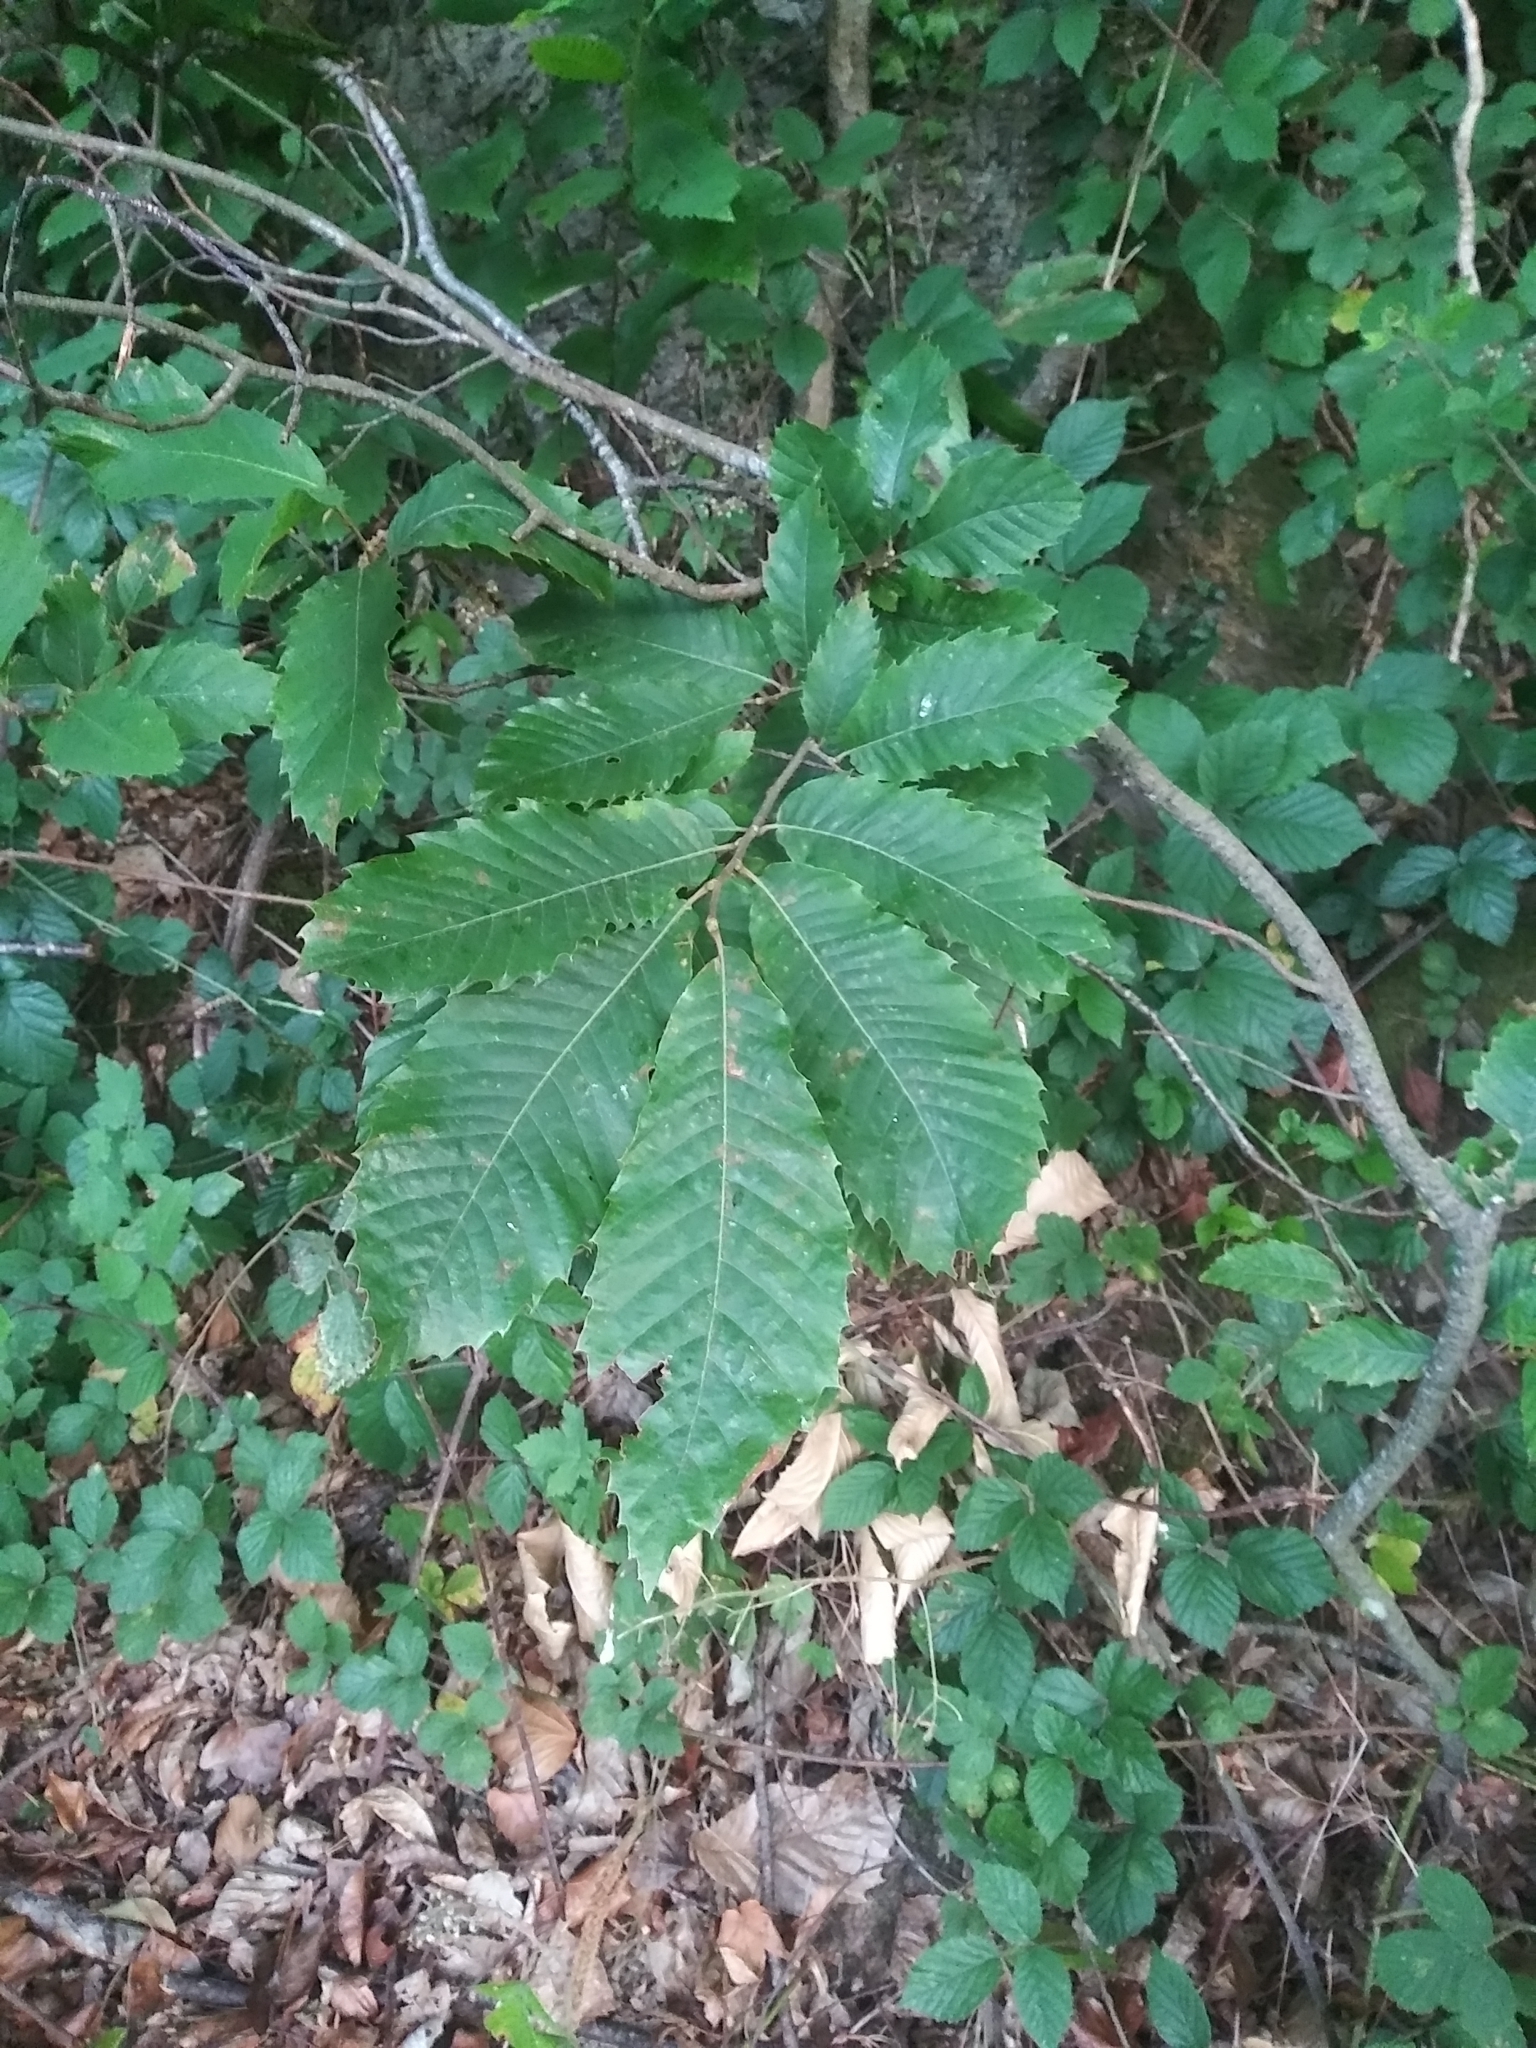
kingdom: Plantae
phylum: Tracheophyta
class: Magnoliopsida
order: Fagales
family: Fagaceae
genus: Castanea
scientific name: Castanea sativa
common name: Sweet chestnut
